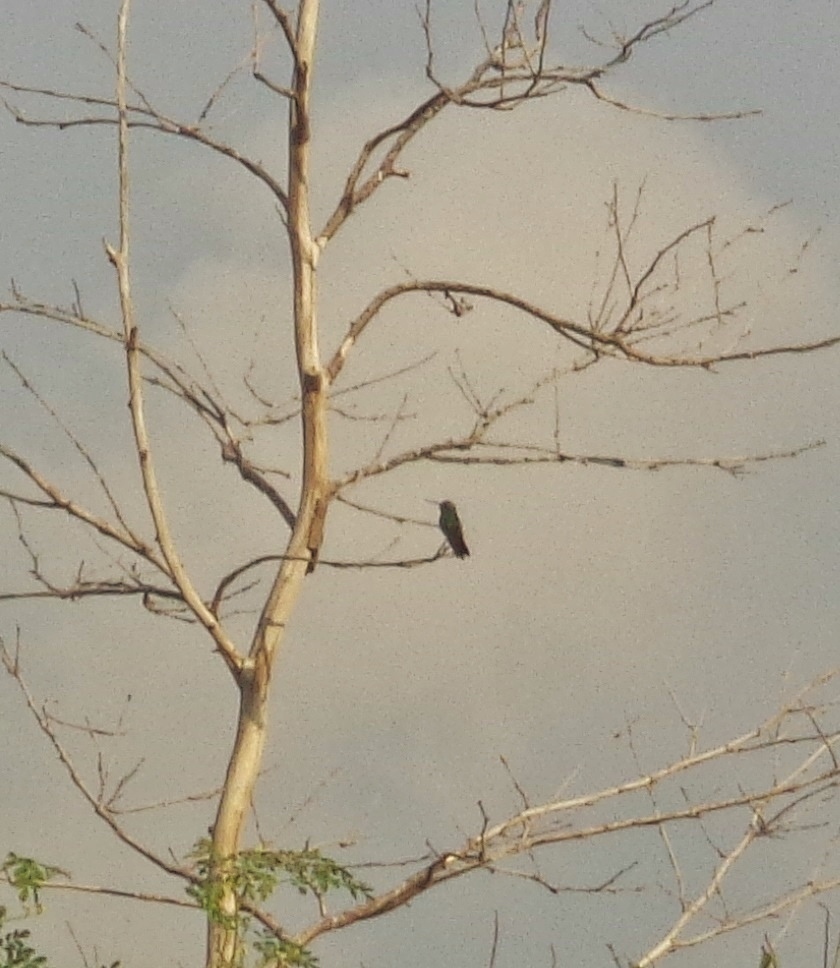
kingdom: Animalia
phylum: Chordata
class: Aves
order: Apodiformes
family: Trochilidae
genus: Cynanthus
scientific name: Cynanthus latirostris
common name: Broad-billed hummingbird
